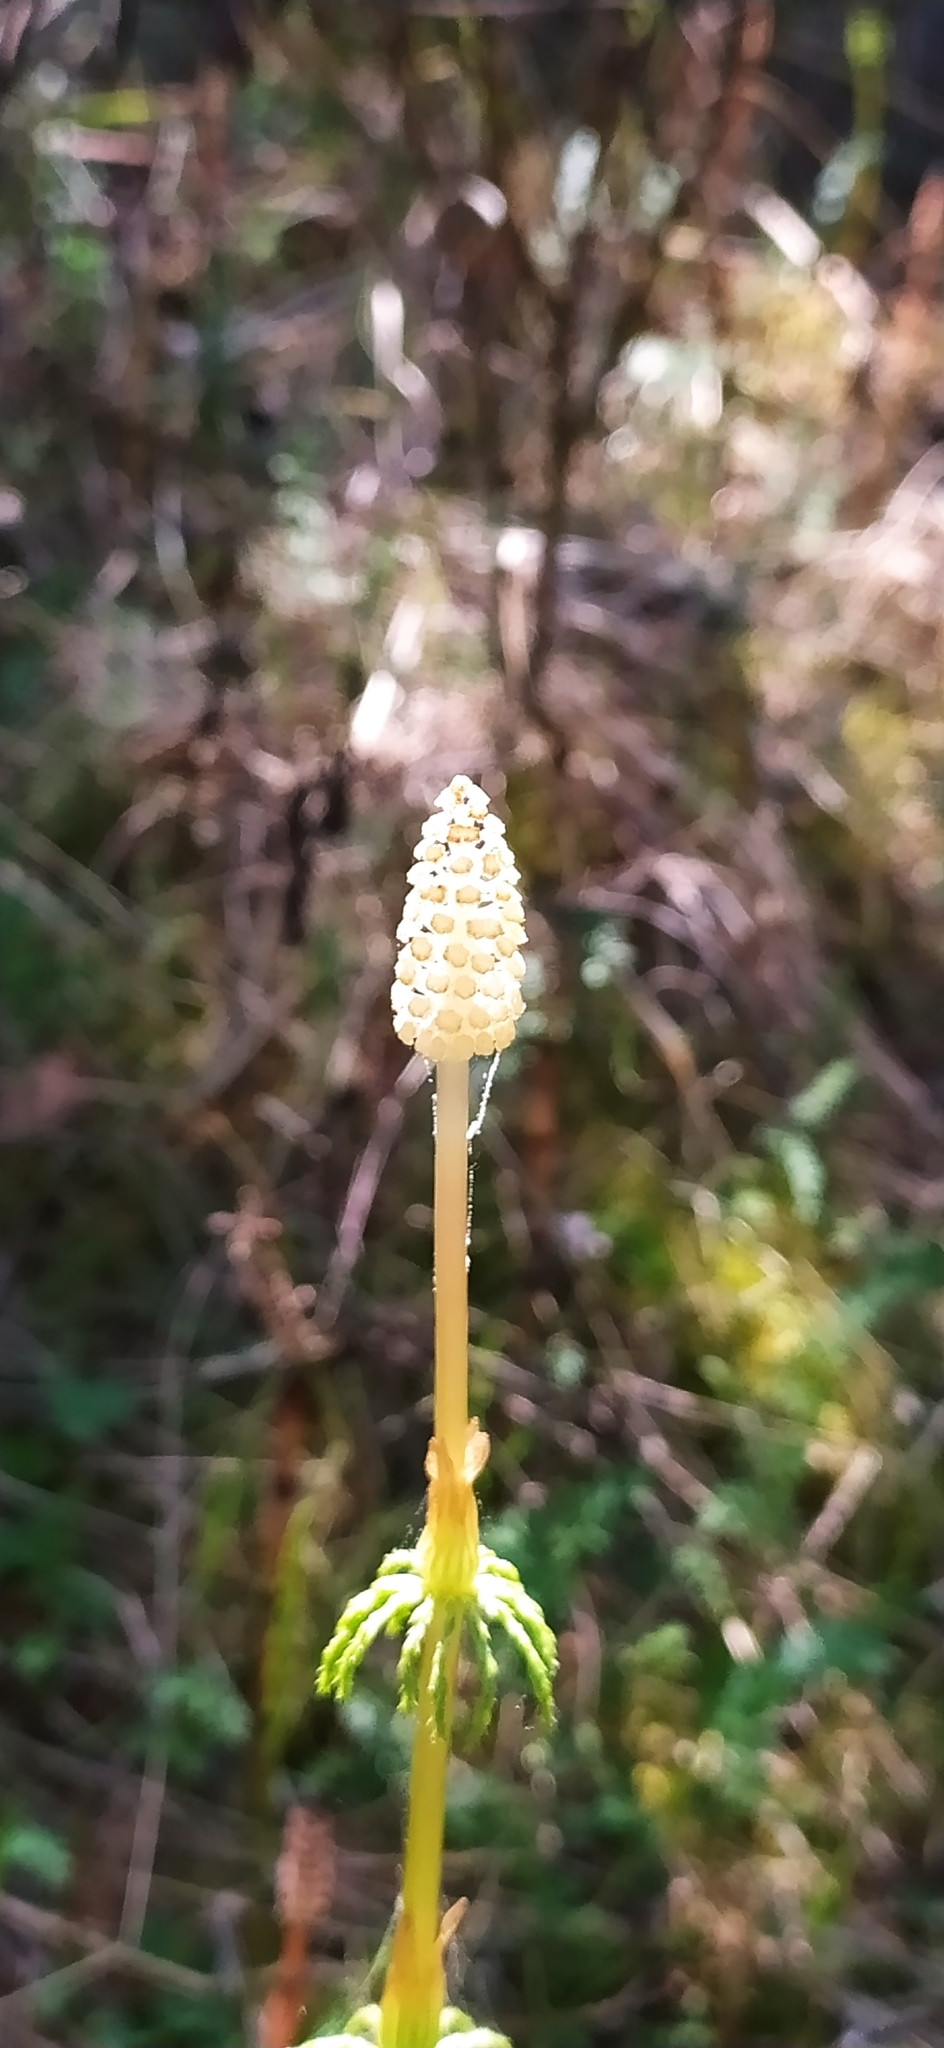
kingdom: Plantae
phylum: Tracheophyta
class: Polypodiopsida
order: Equisetales
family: Equisetaceae
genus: Equisetum
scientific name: Equisetum sylvaticum
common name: Wood horsetail
